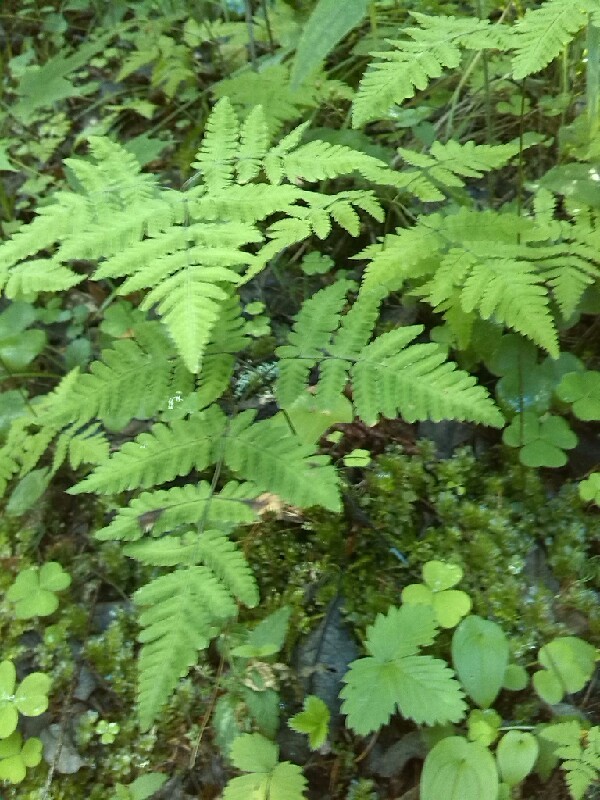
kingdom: Plantae
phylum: Tracheophyta
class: Polypodiopsida
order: Polypodiales
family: Cystopteridaceae
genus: Gymnocarpium
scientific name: Gymnocarpium dryopteris
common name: Oak fern
